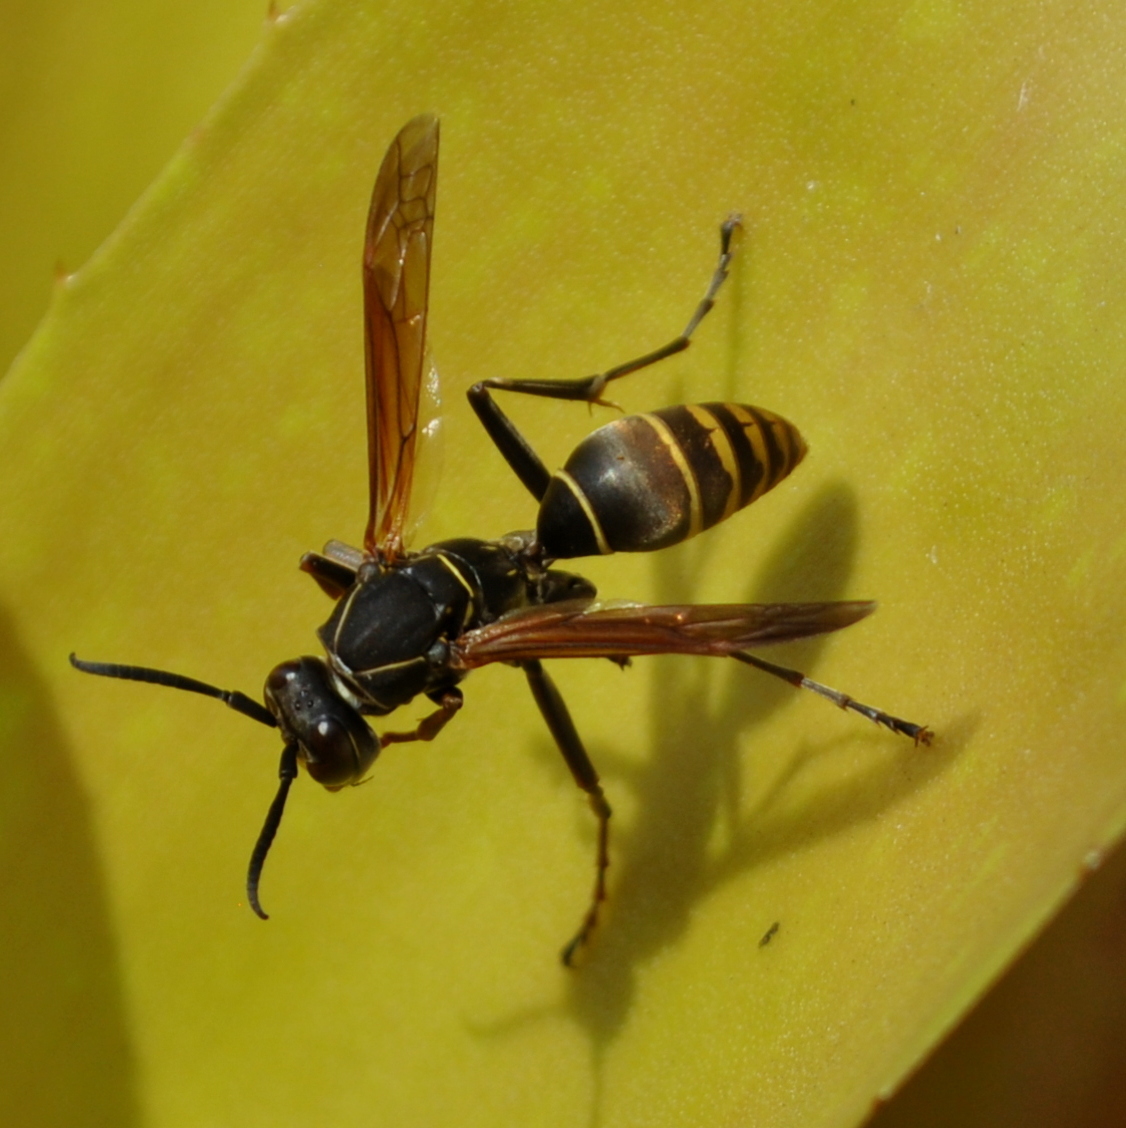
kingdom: Animalia
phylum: Arthropoda
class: Insecta
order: Hymenoptera
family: Eumenidae
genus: Polistes
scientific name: Polistes cinerascens
